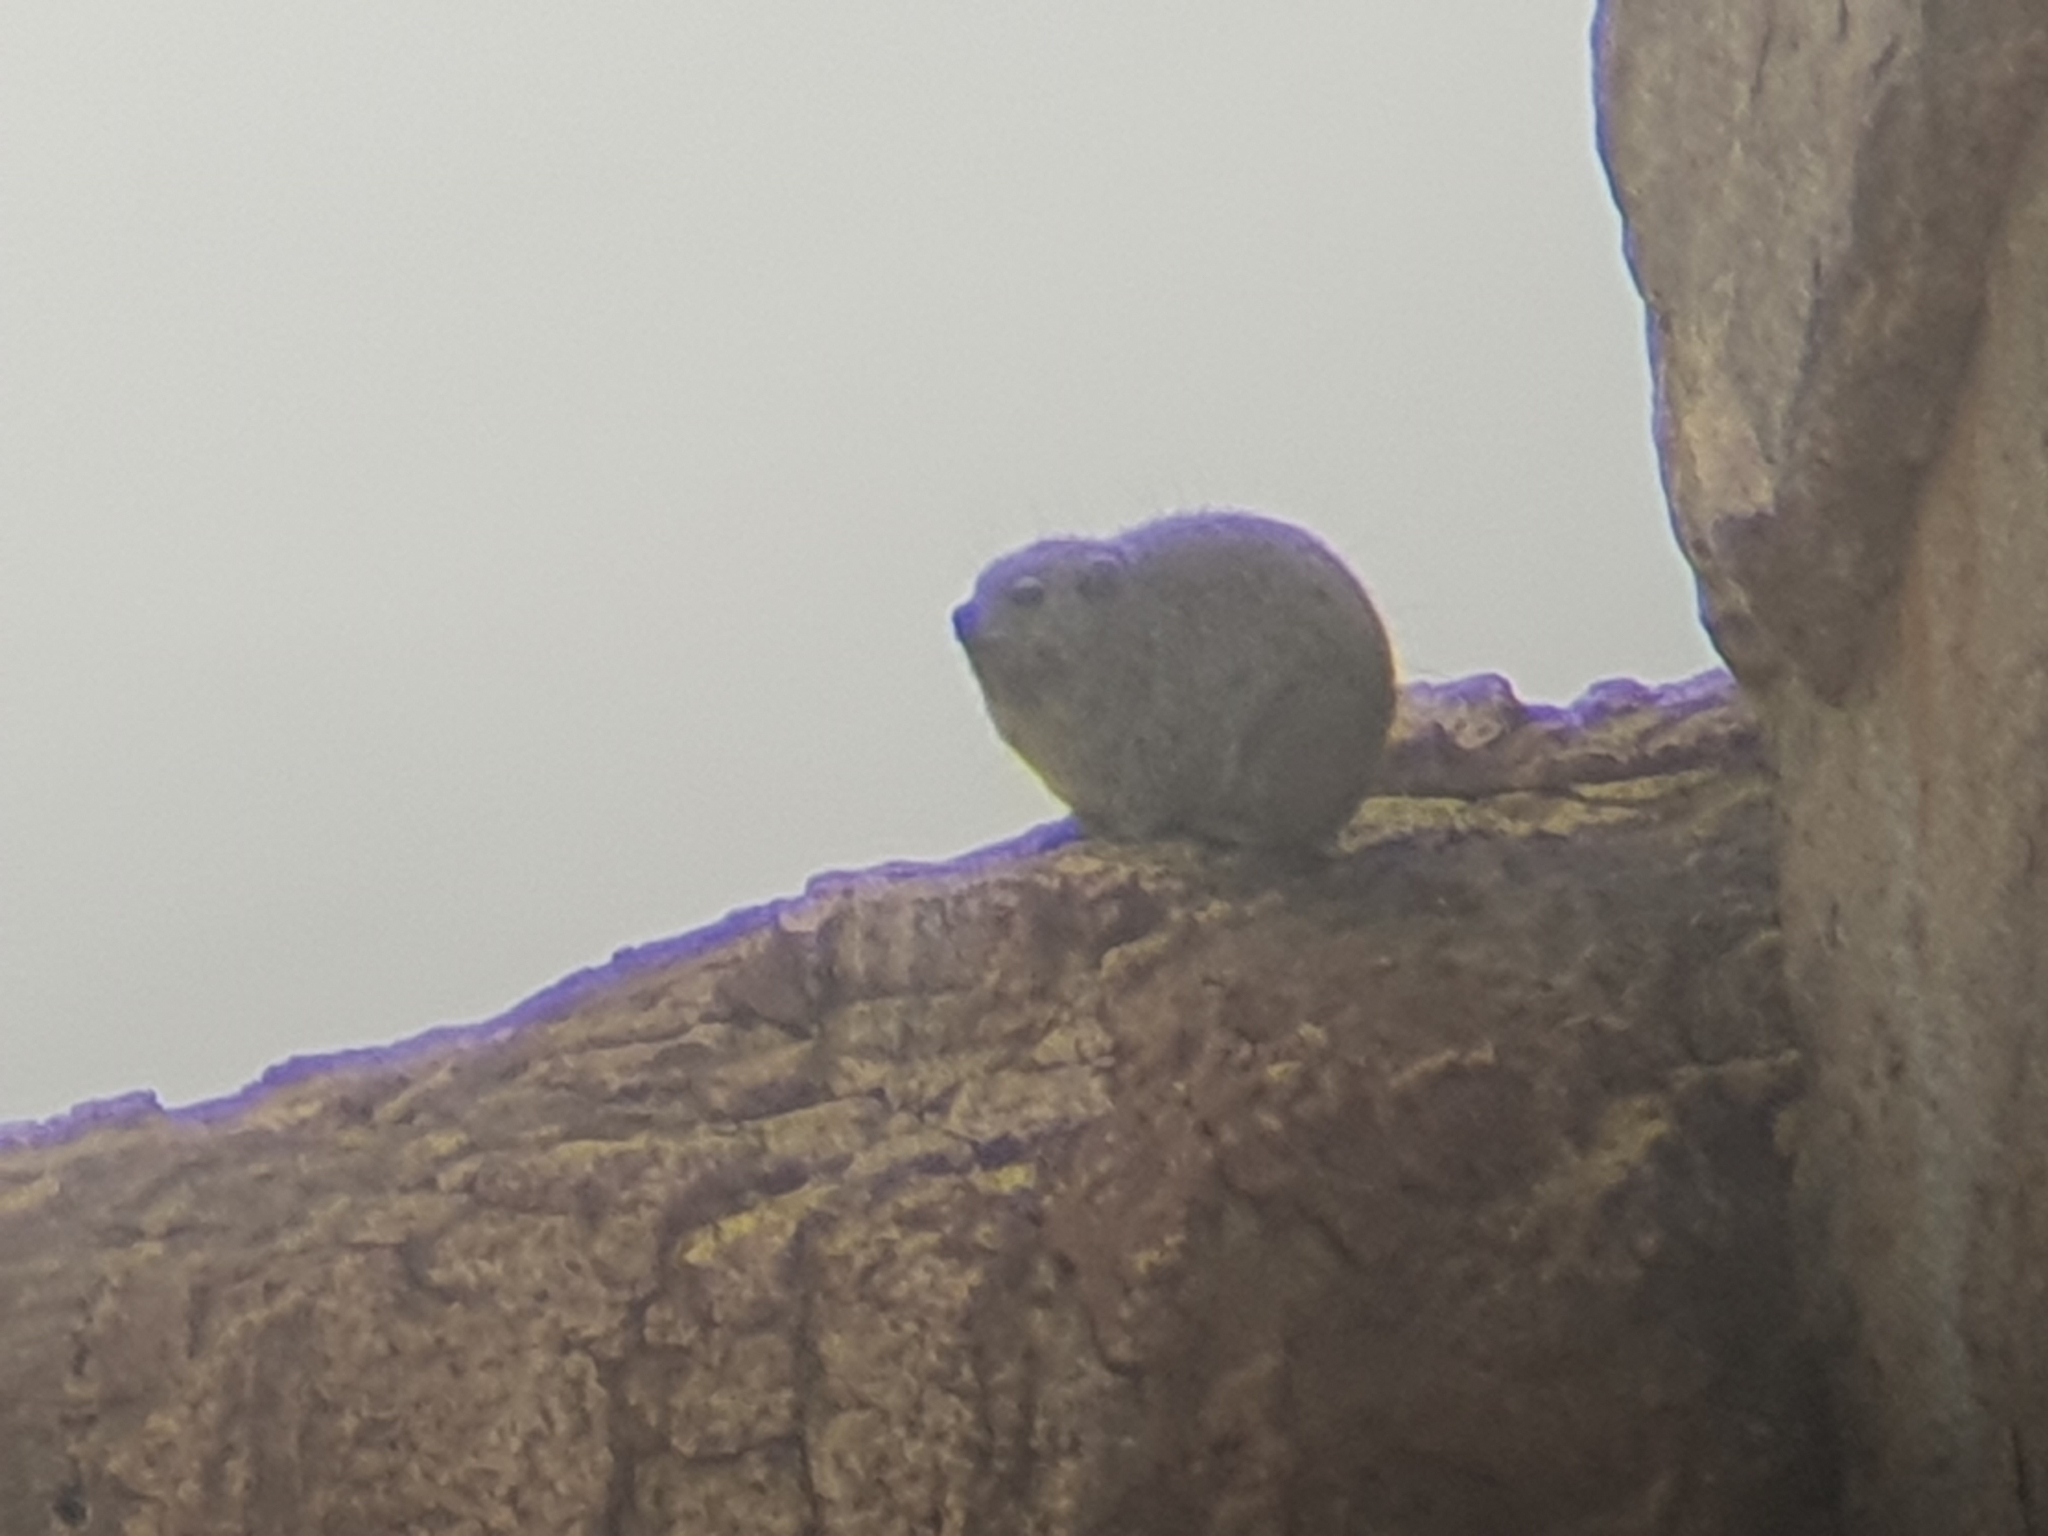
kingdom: Animalia
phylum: Chordata
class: Mammalia
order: Hyracoidea
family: Procaviidae
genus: Procavia
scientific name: Procavia capensis
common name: Rock hyrax
